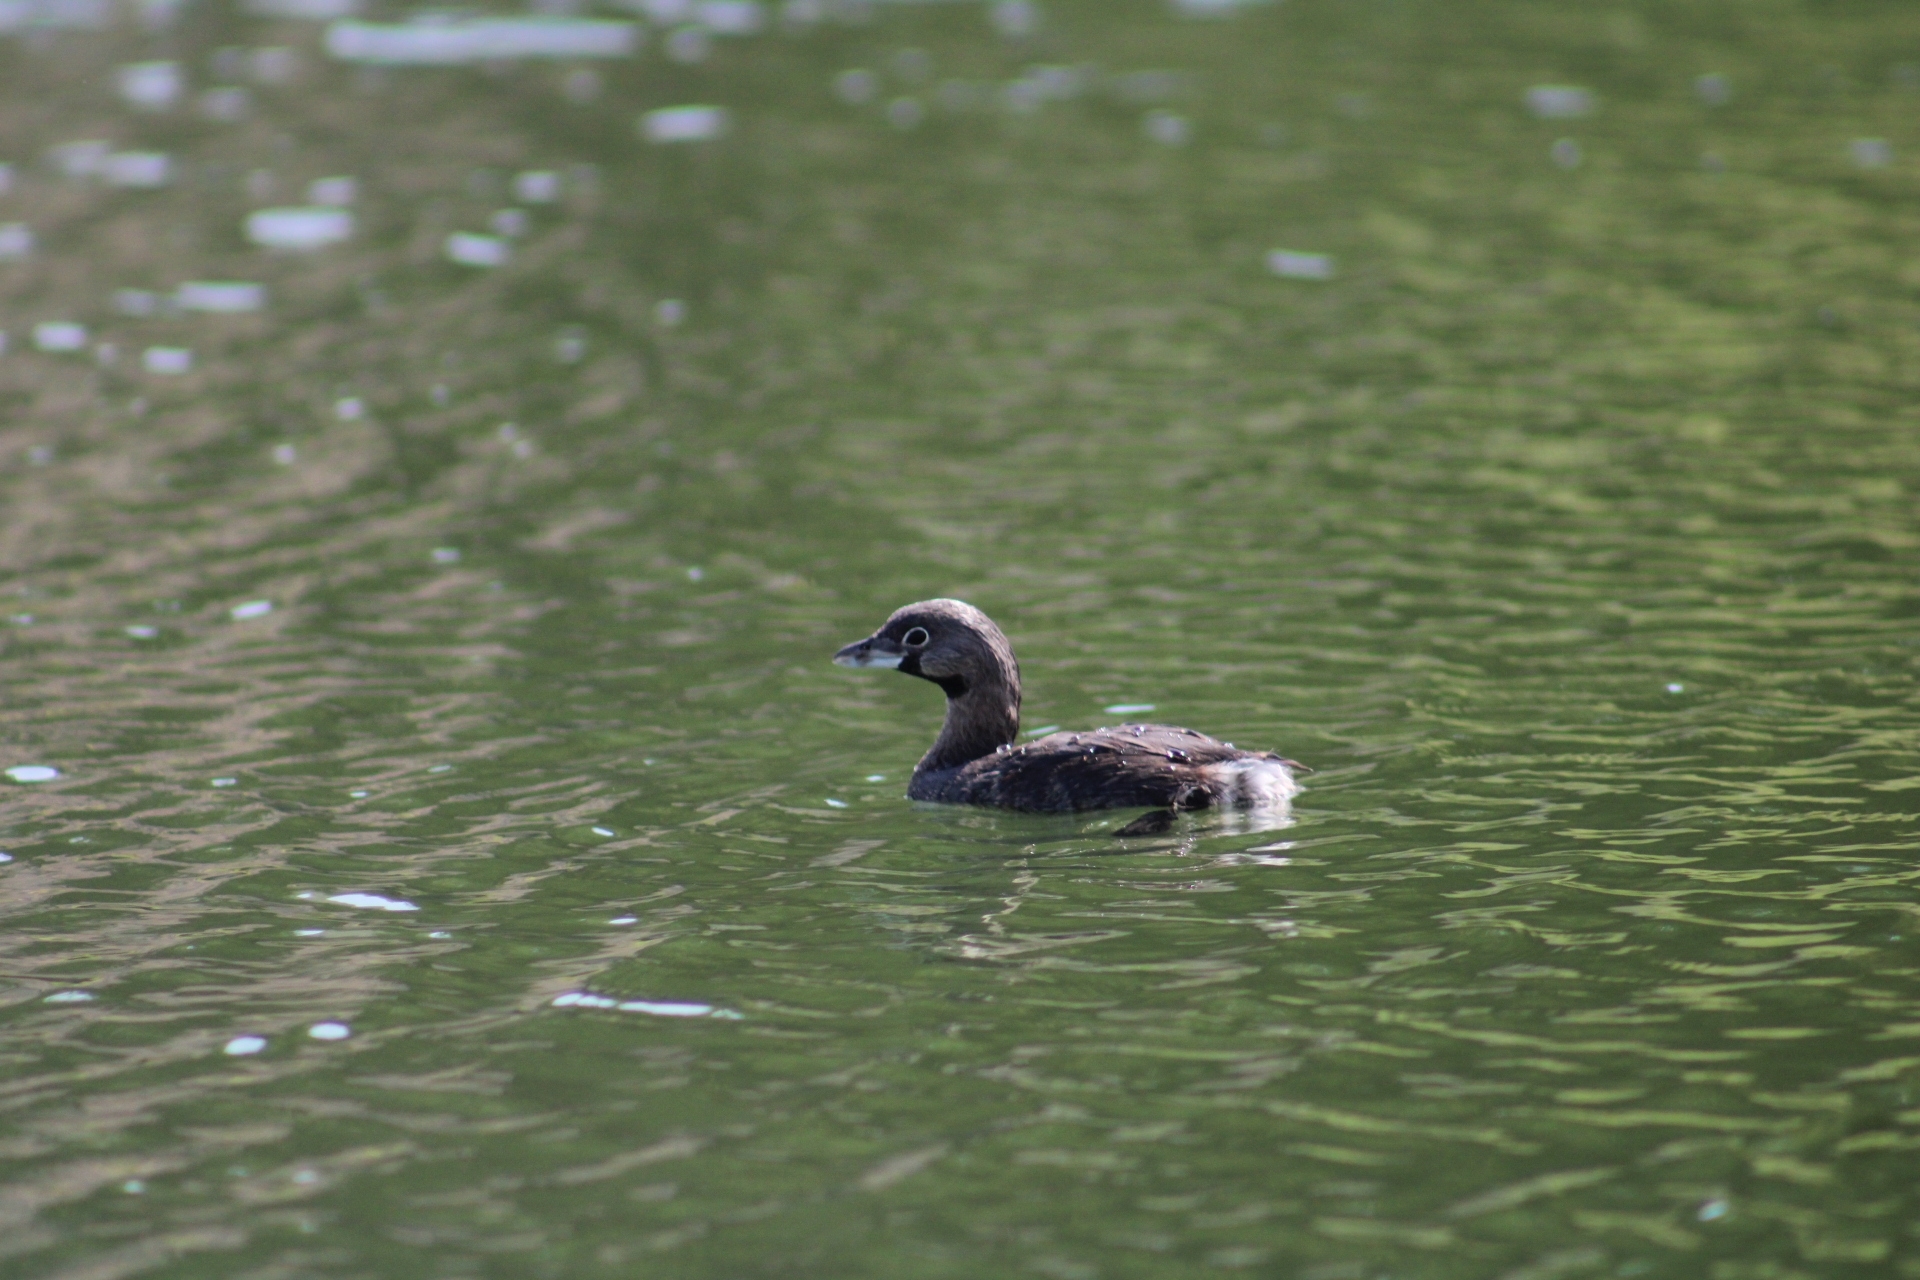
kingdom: Animalia
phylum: Chordata
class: Aves
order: Podicipediformes
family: Podicipedidae
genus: Podilymbus
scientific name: Podilymbus podiceps
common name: Pied-billed grebe
